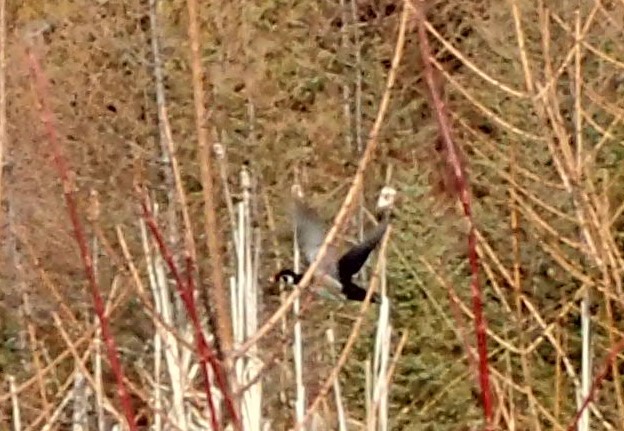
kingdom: Animalia
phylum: Chordata
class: Aves
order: Anseriformes
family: Anatidae
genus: Aix
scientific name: Aix sponsa
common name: Wood duck
